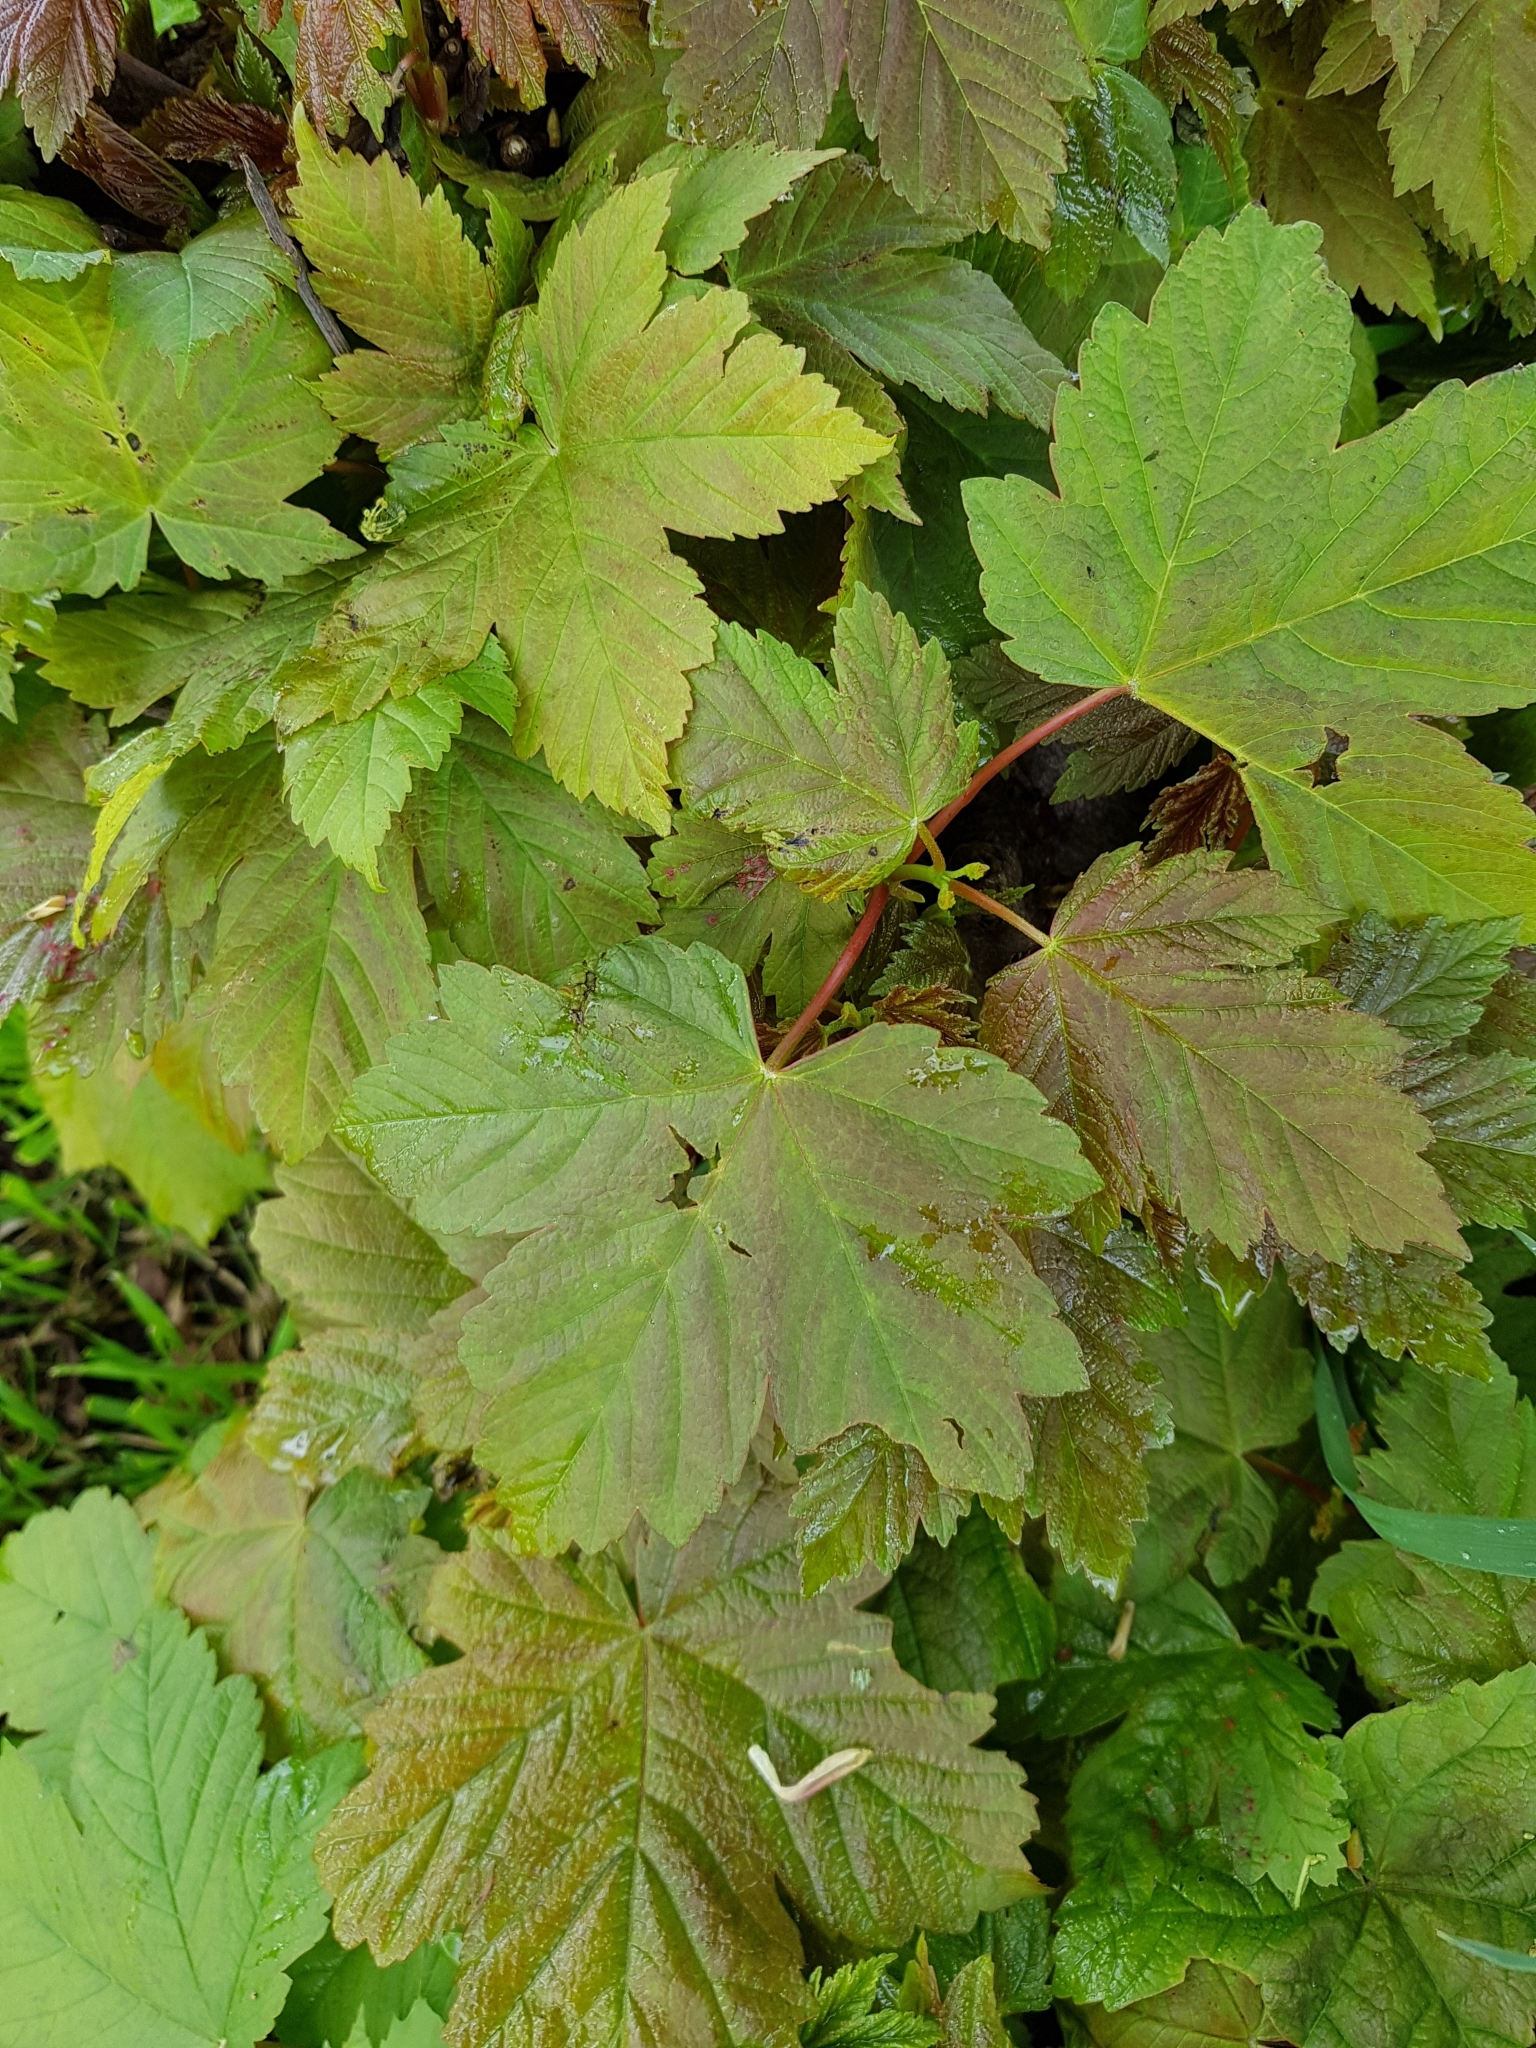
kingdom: Plantae
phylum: Tracheophyta
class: Magnoliopsida
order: Sapindales
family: Sapindaceae
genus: Acer
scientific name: Acer pseudoplatanus
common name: Sycamore
